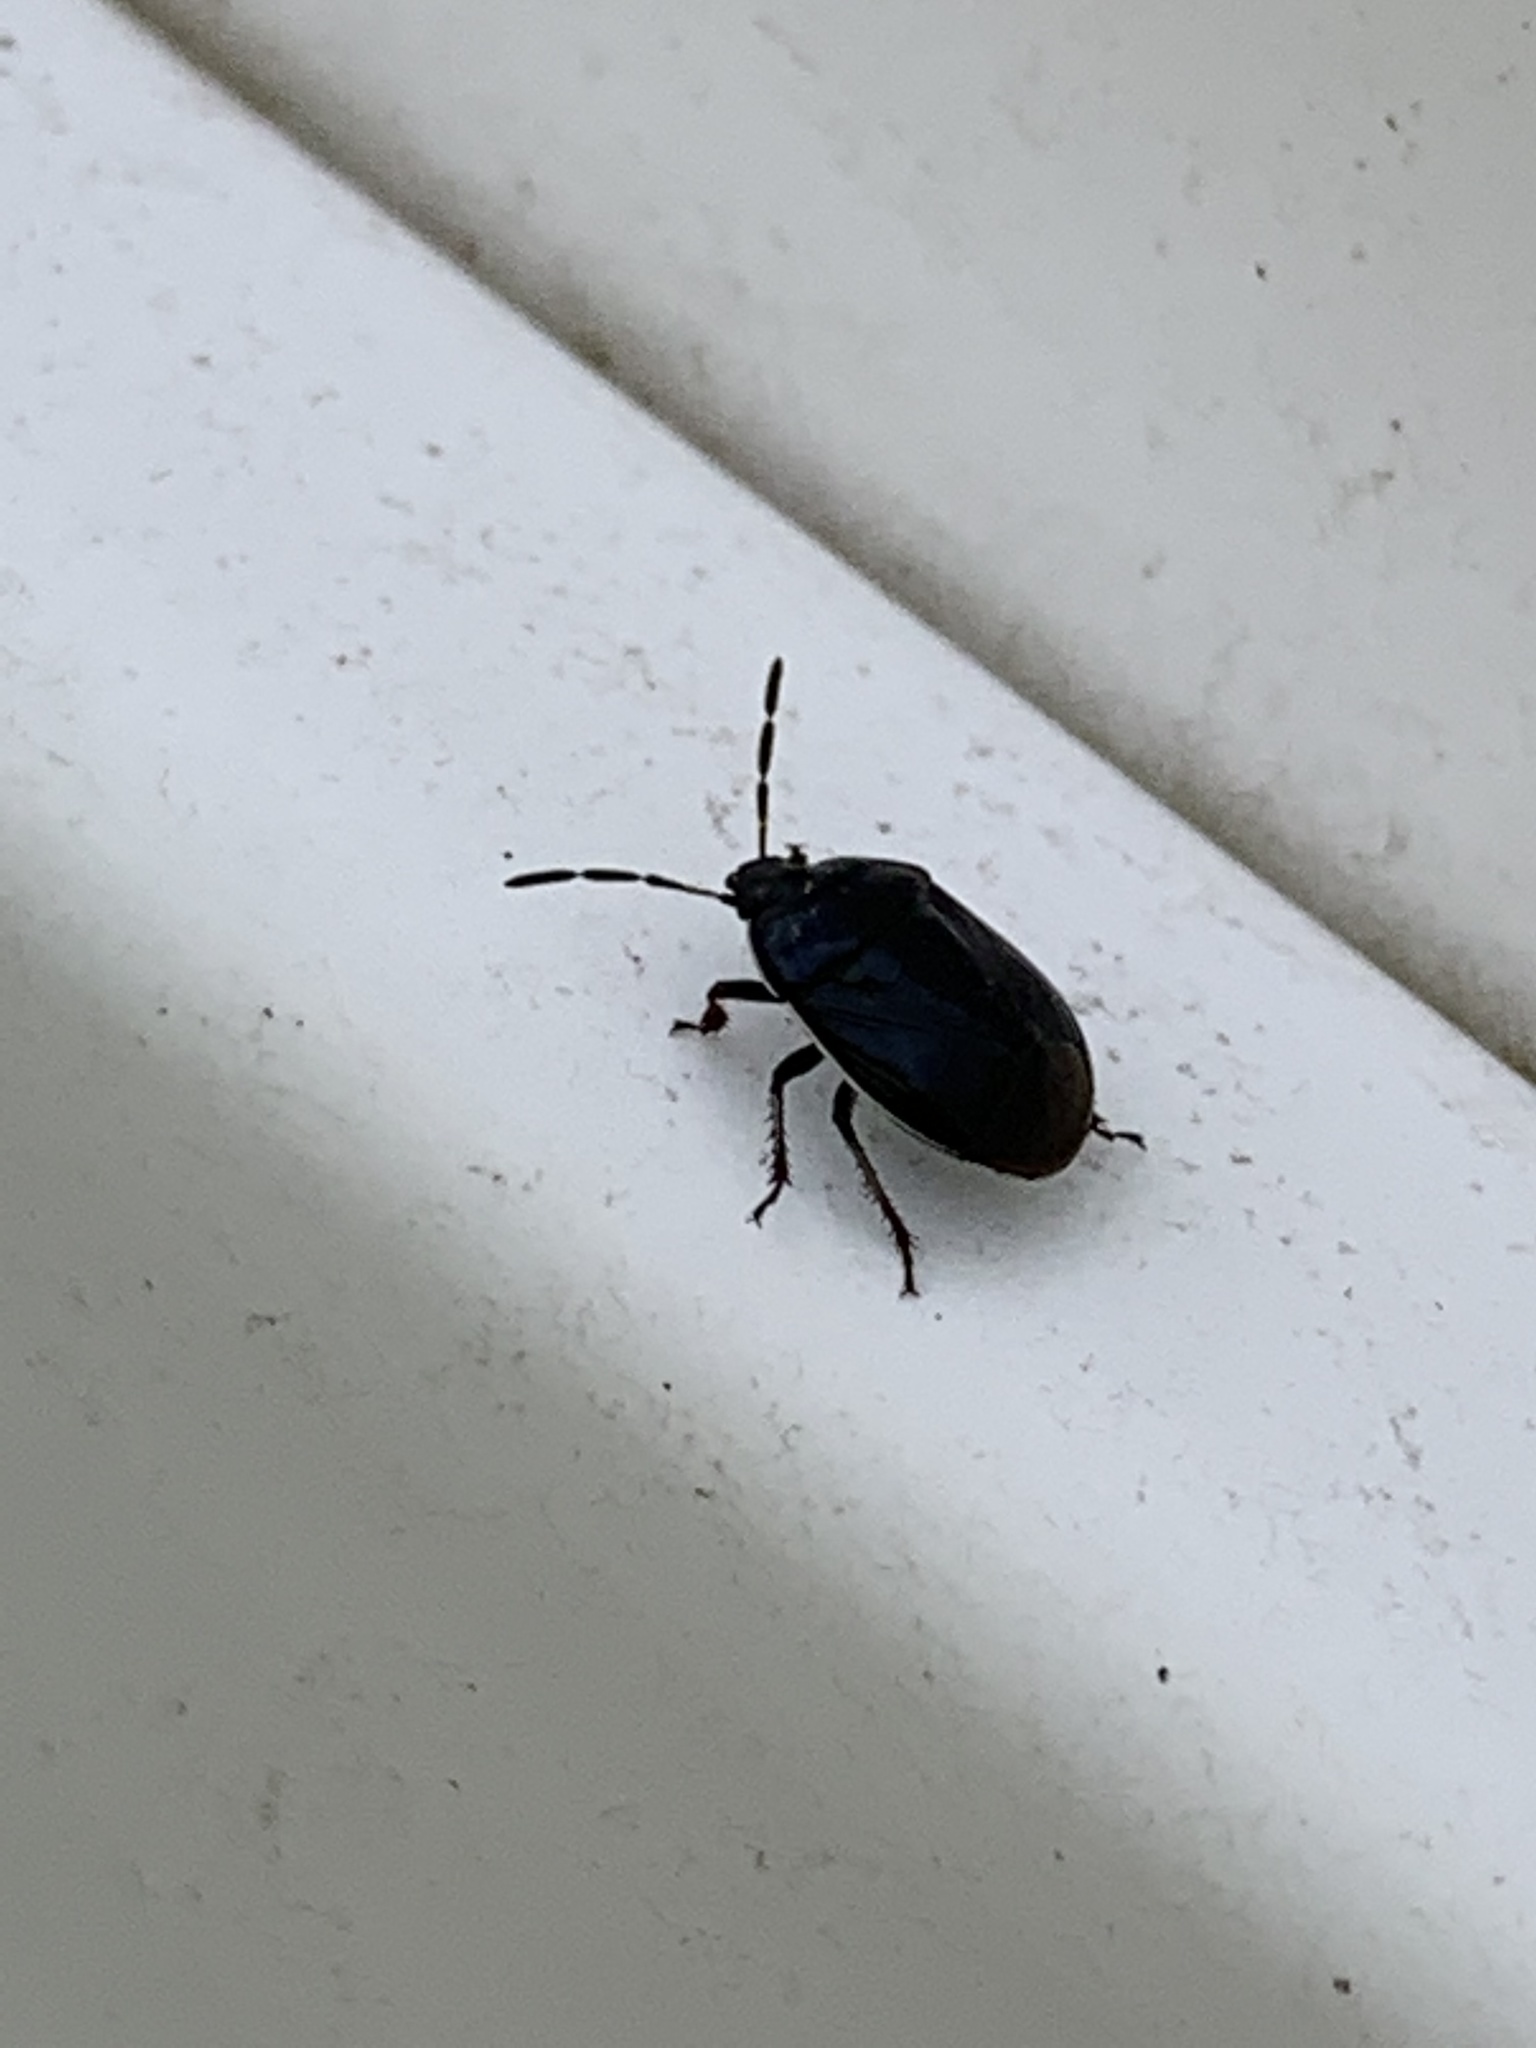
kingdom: Animalia
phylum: Arthropoda
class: Insecta
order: Hemiptera
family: Cydnidae
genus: Sehirus
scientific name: Sehirus cinctus
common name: White-margined burrower bug
